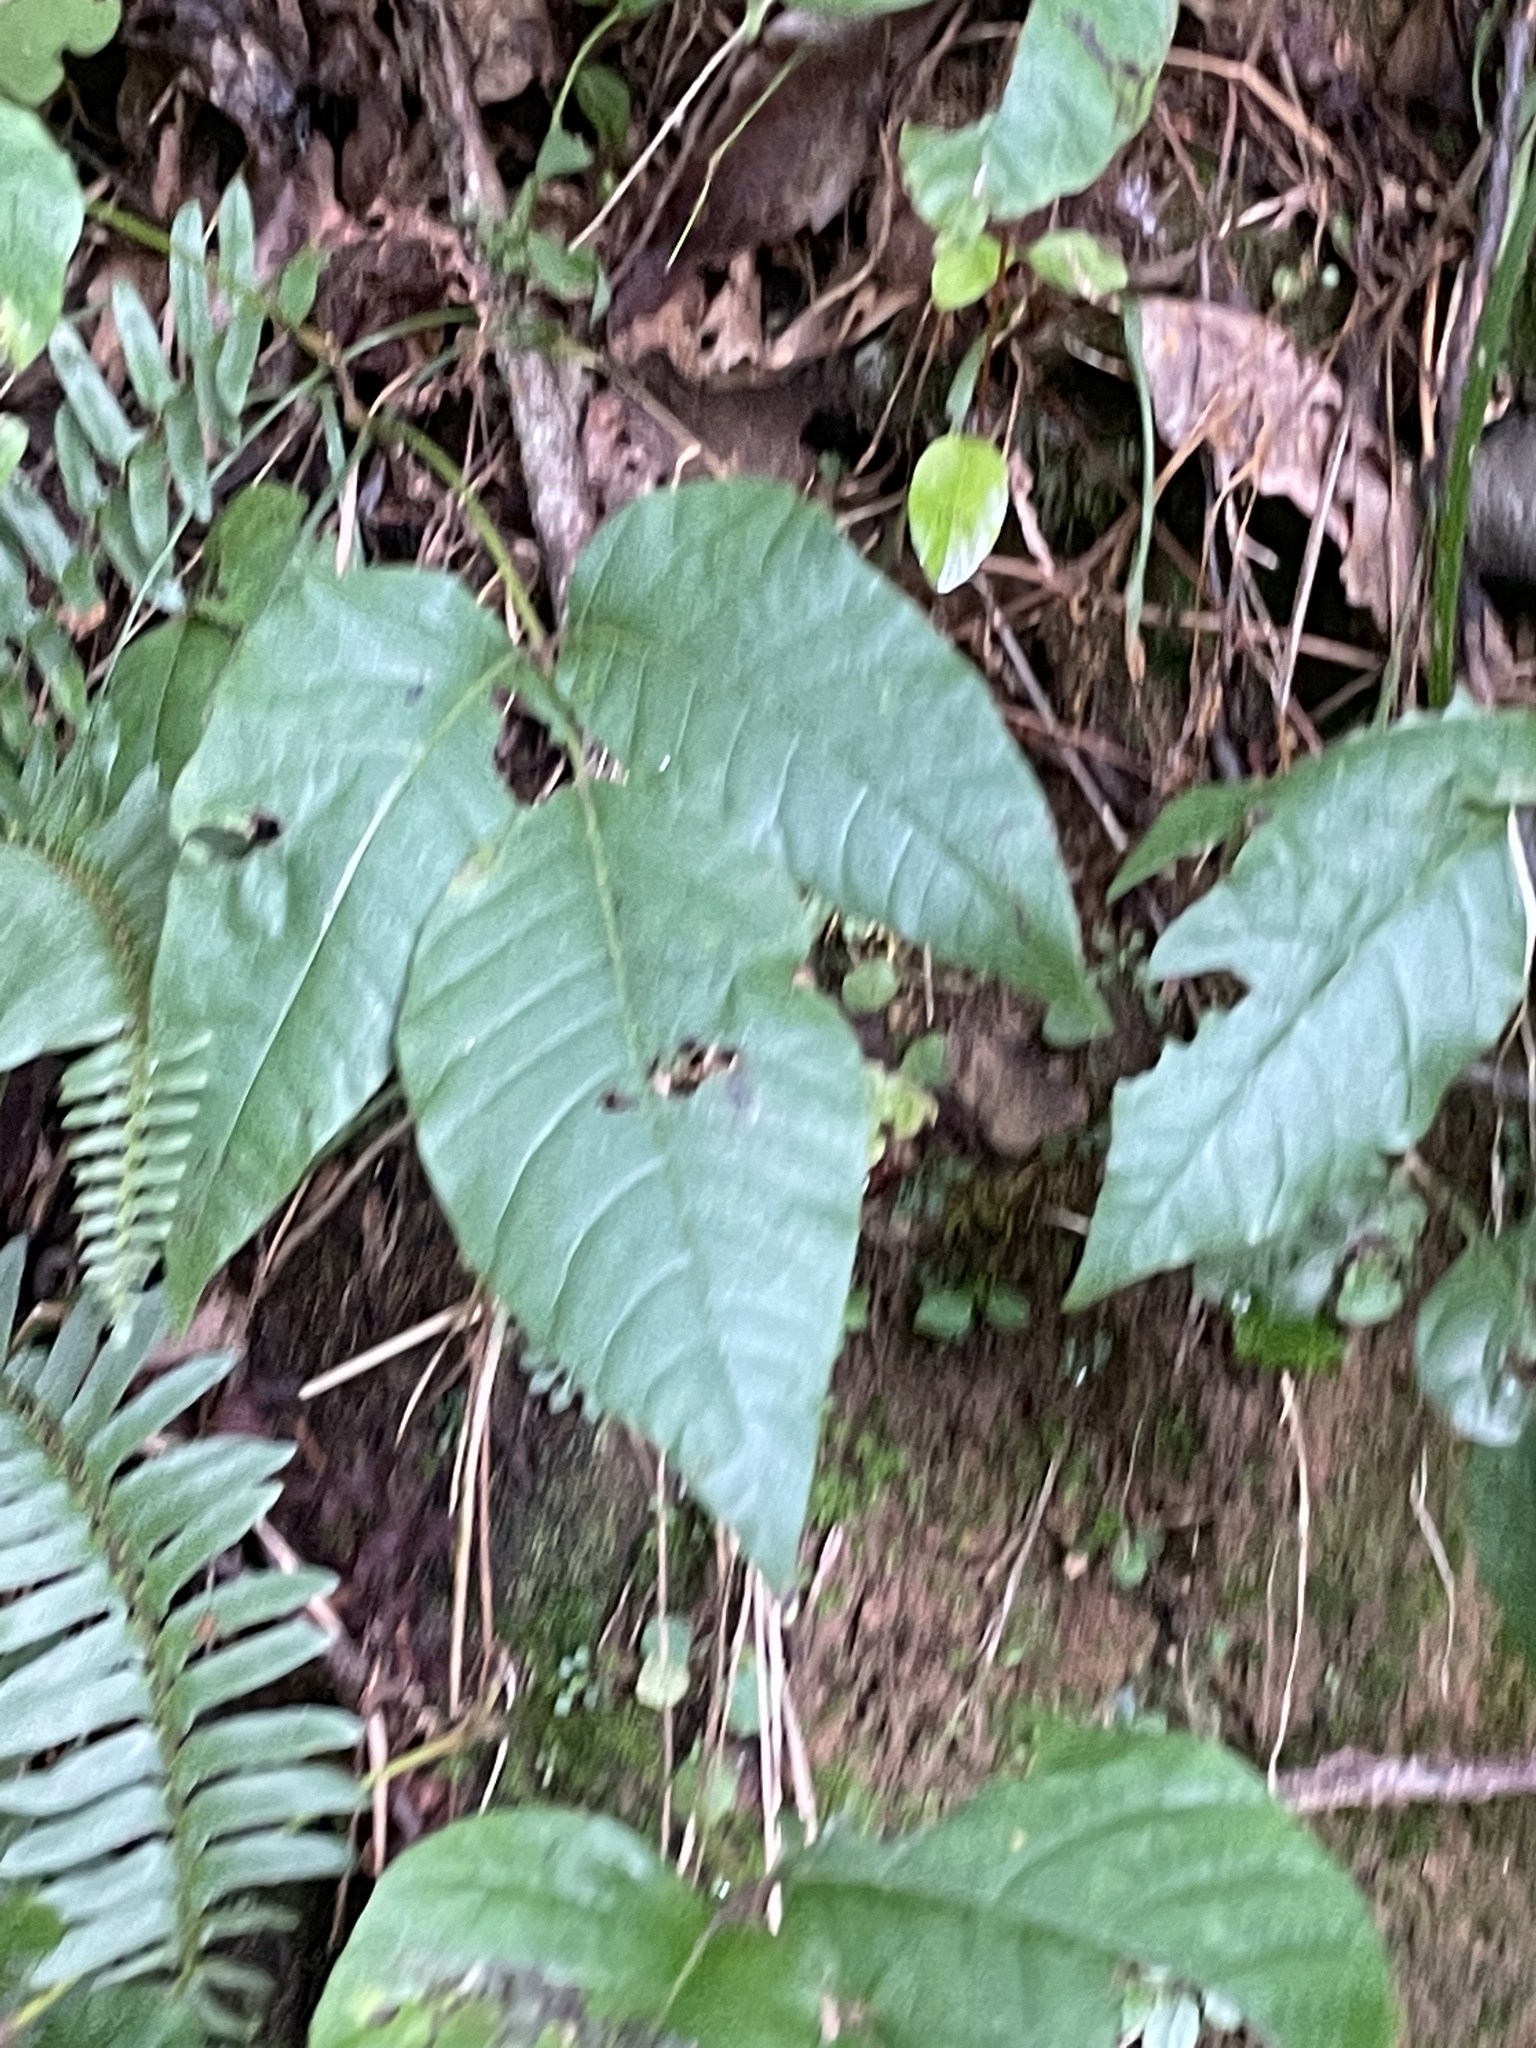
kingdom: Plantae
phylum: Tracheophyta
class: Magnoliopsida
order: Sapindales
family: Anacardiaceae
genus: Toxicodendron
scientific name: Toxicodendron radicans
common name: Poison ivy
